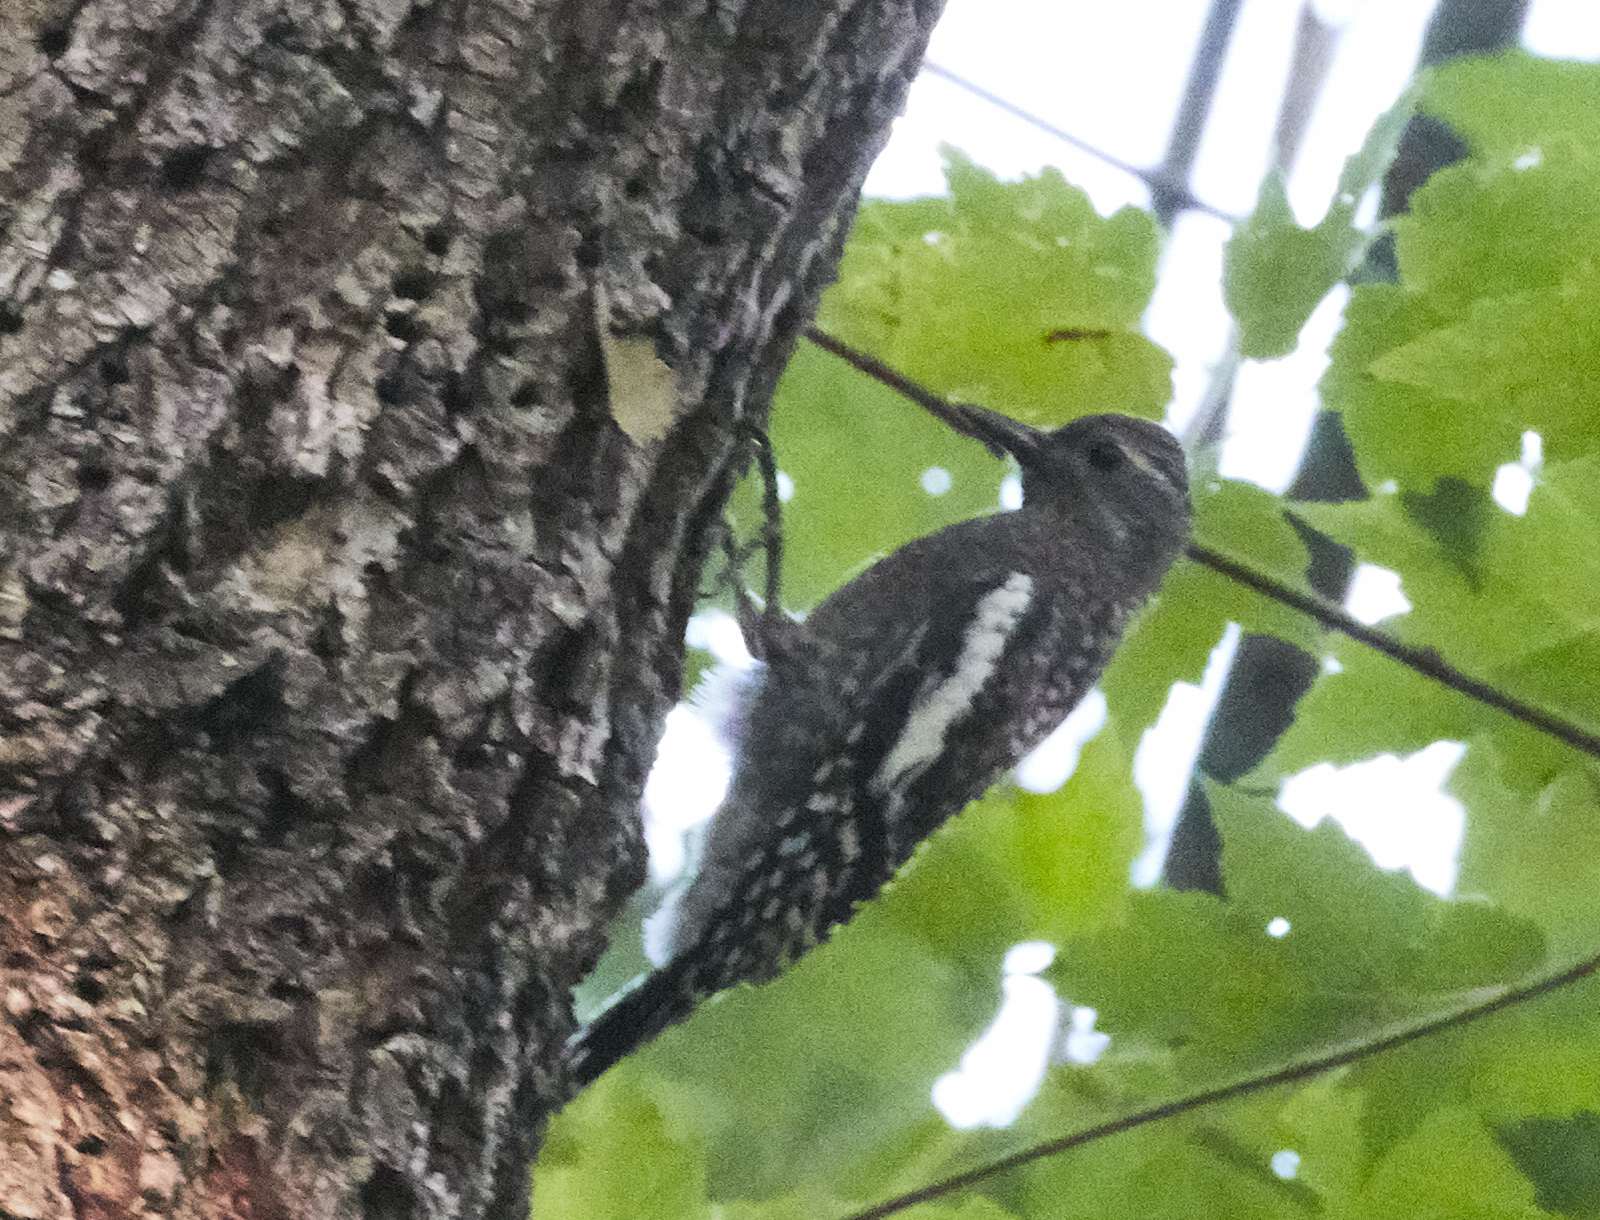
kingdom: Animalia
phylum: Chordata
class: Aves
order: Piciformes
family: Picidae
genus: Sphyrapicus
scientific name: Sphyrapicus varius
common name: Yellow-bellied sapsucker
